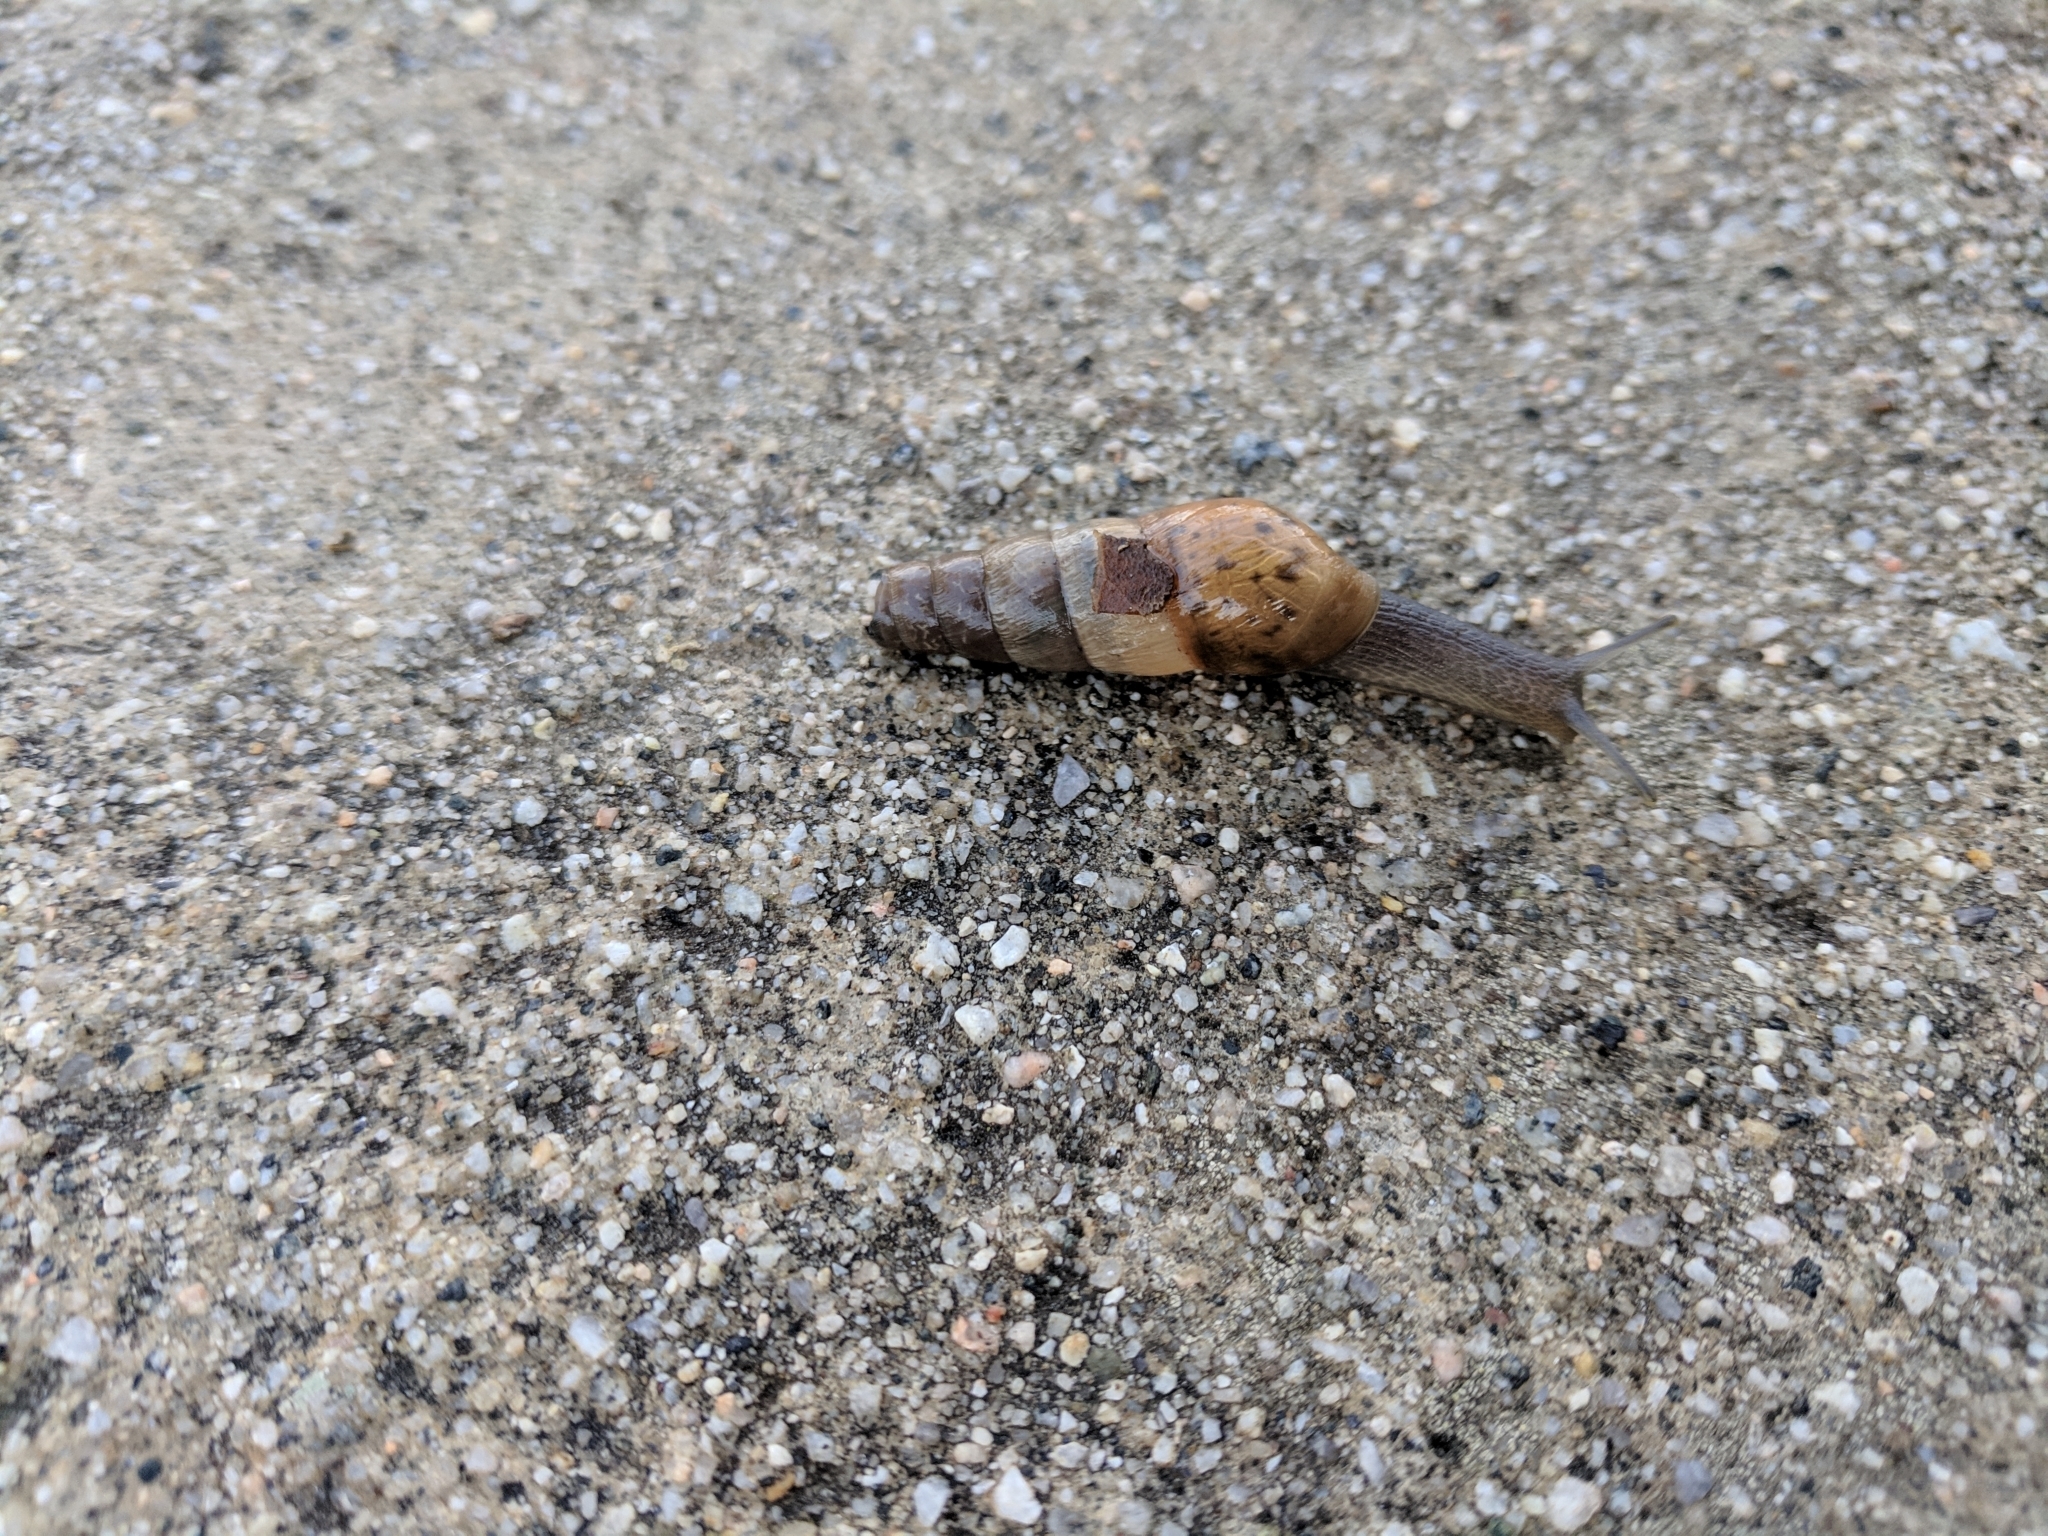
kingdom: Animalia
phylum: Mollusca
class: Gastropoda
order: Stylommatophora
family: Achatinidae
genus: Rumina
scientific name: Rumina decollata
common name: Decollate snail
